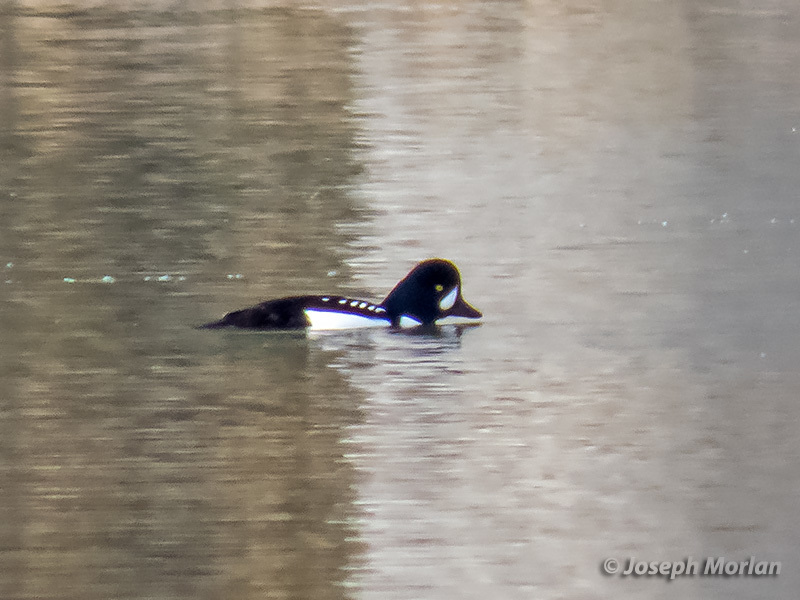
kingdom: Animalia
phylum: Chordata
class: Aves
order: Anseriformes
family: Anatidae
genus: Bucephala
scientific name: Bucephala islandica
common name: Barrow's goldeneye
